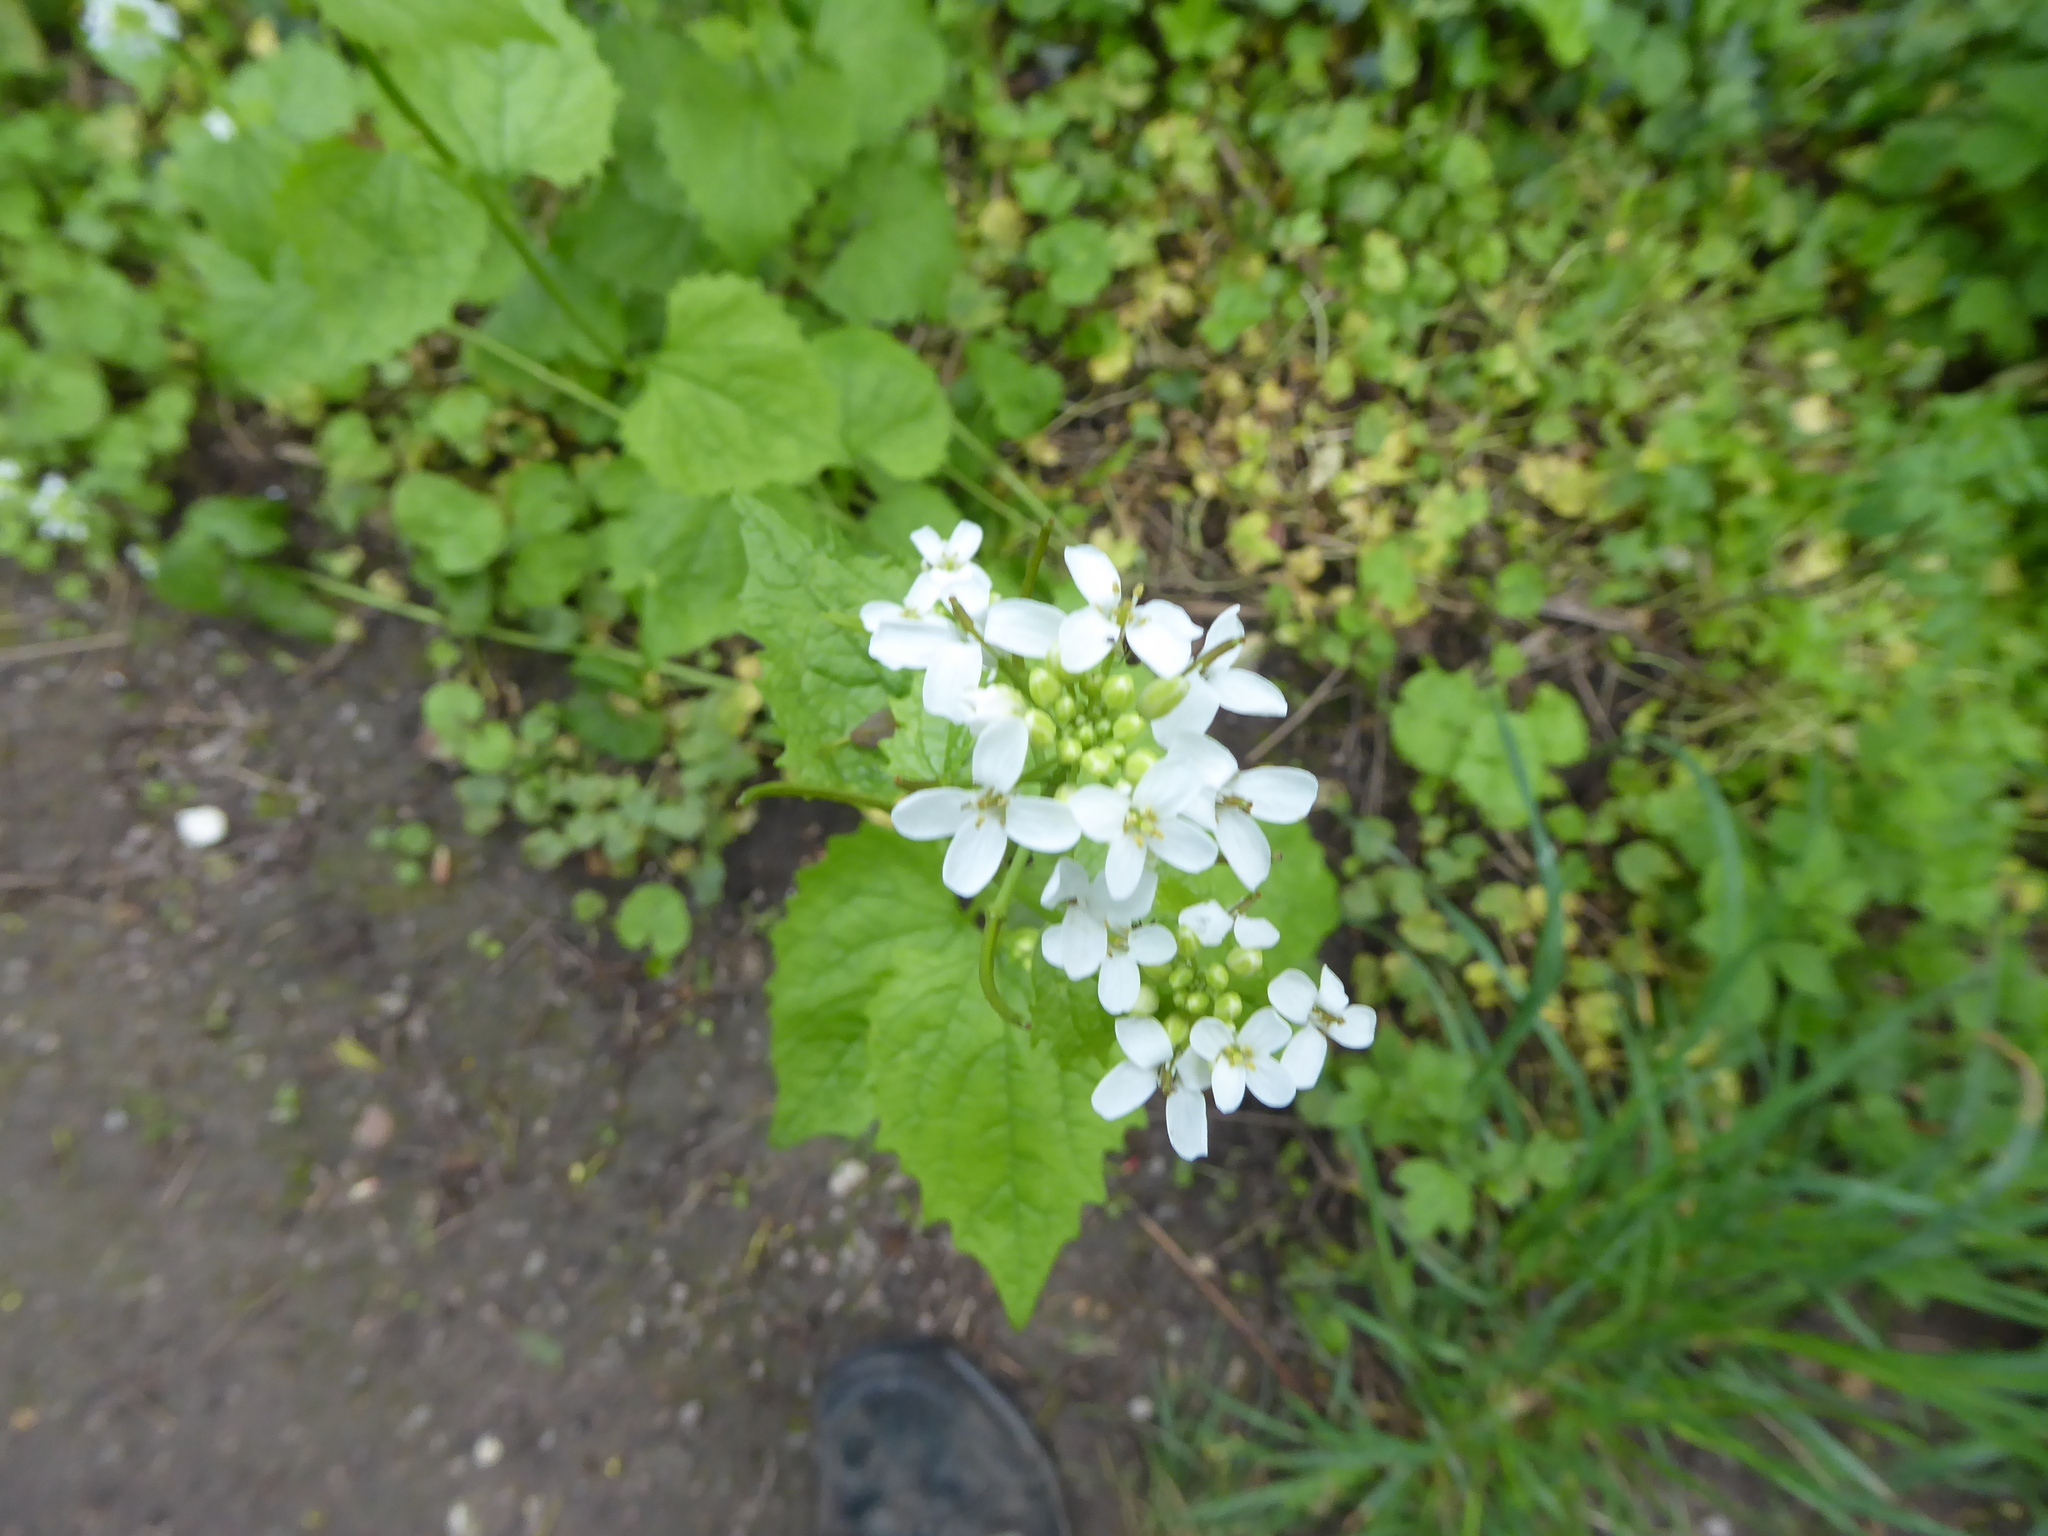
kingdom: Plantae
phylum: Tracheophyta
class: Magnoliopsida
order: Brassicales
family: Brassicaceae
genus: Alliaria
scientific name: Alliaria petiolata
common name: Garlic mustard
